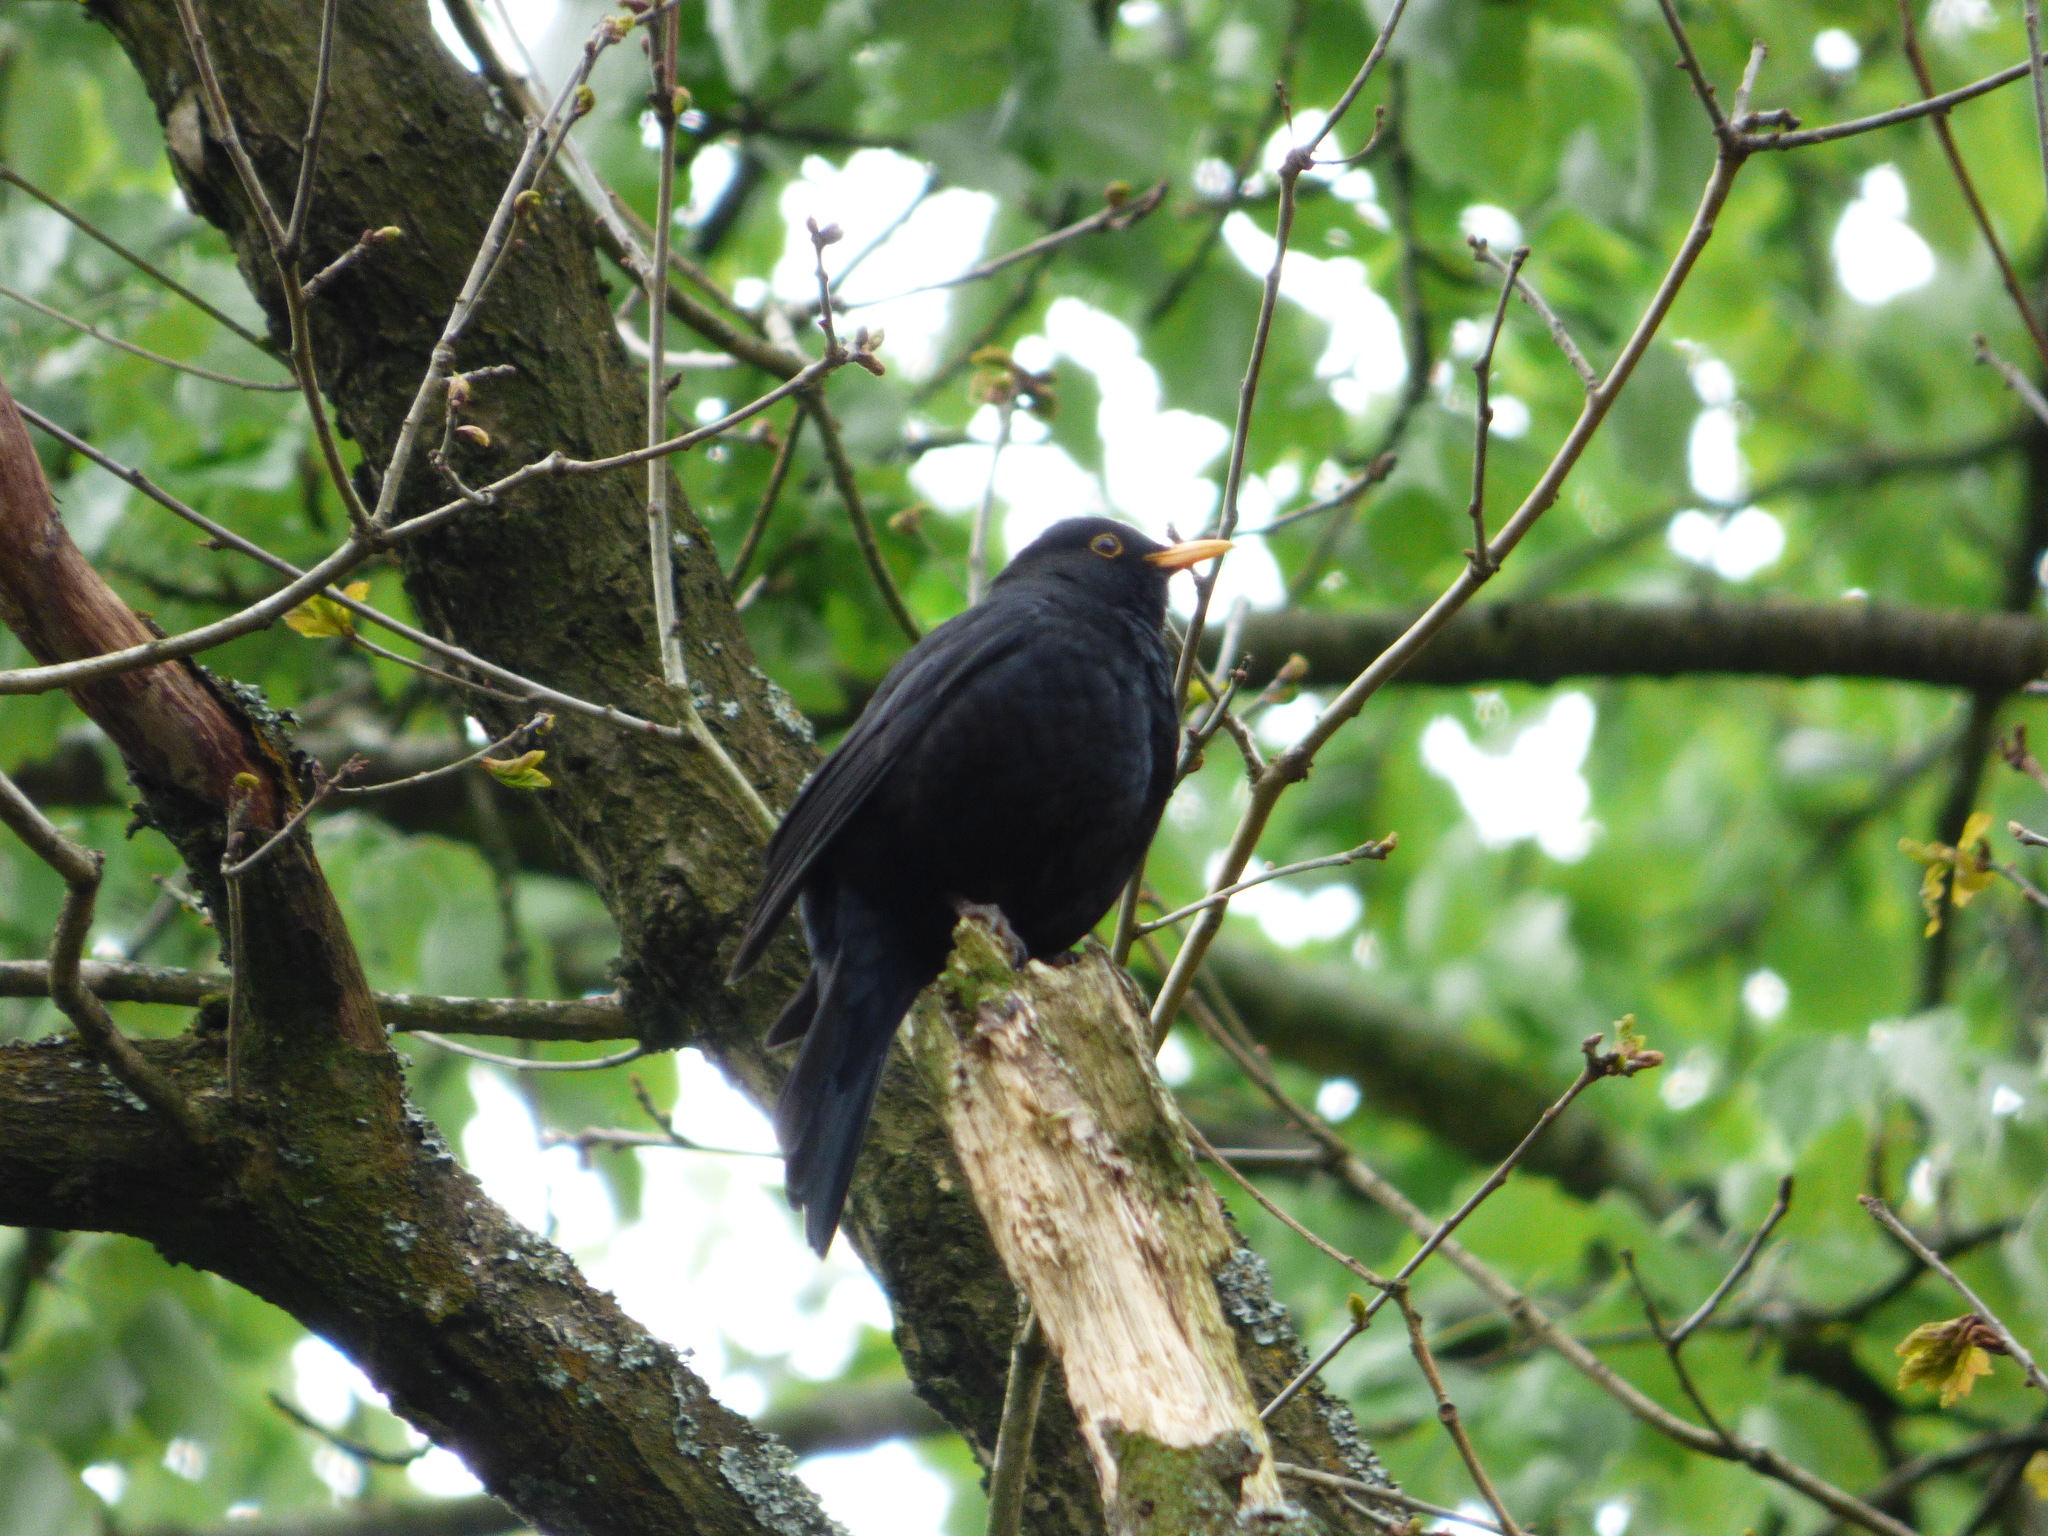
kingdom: Animalia
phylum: Chordata
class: Aves
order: Passeriformes
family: Turdidae
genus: Turdus
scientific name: Turdus merula
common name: Common blackbird
